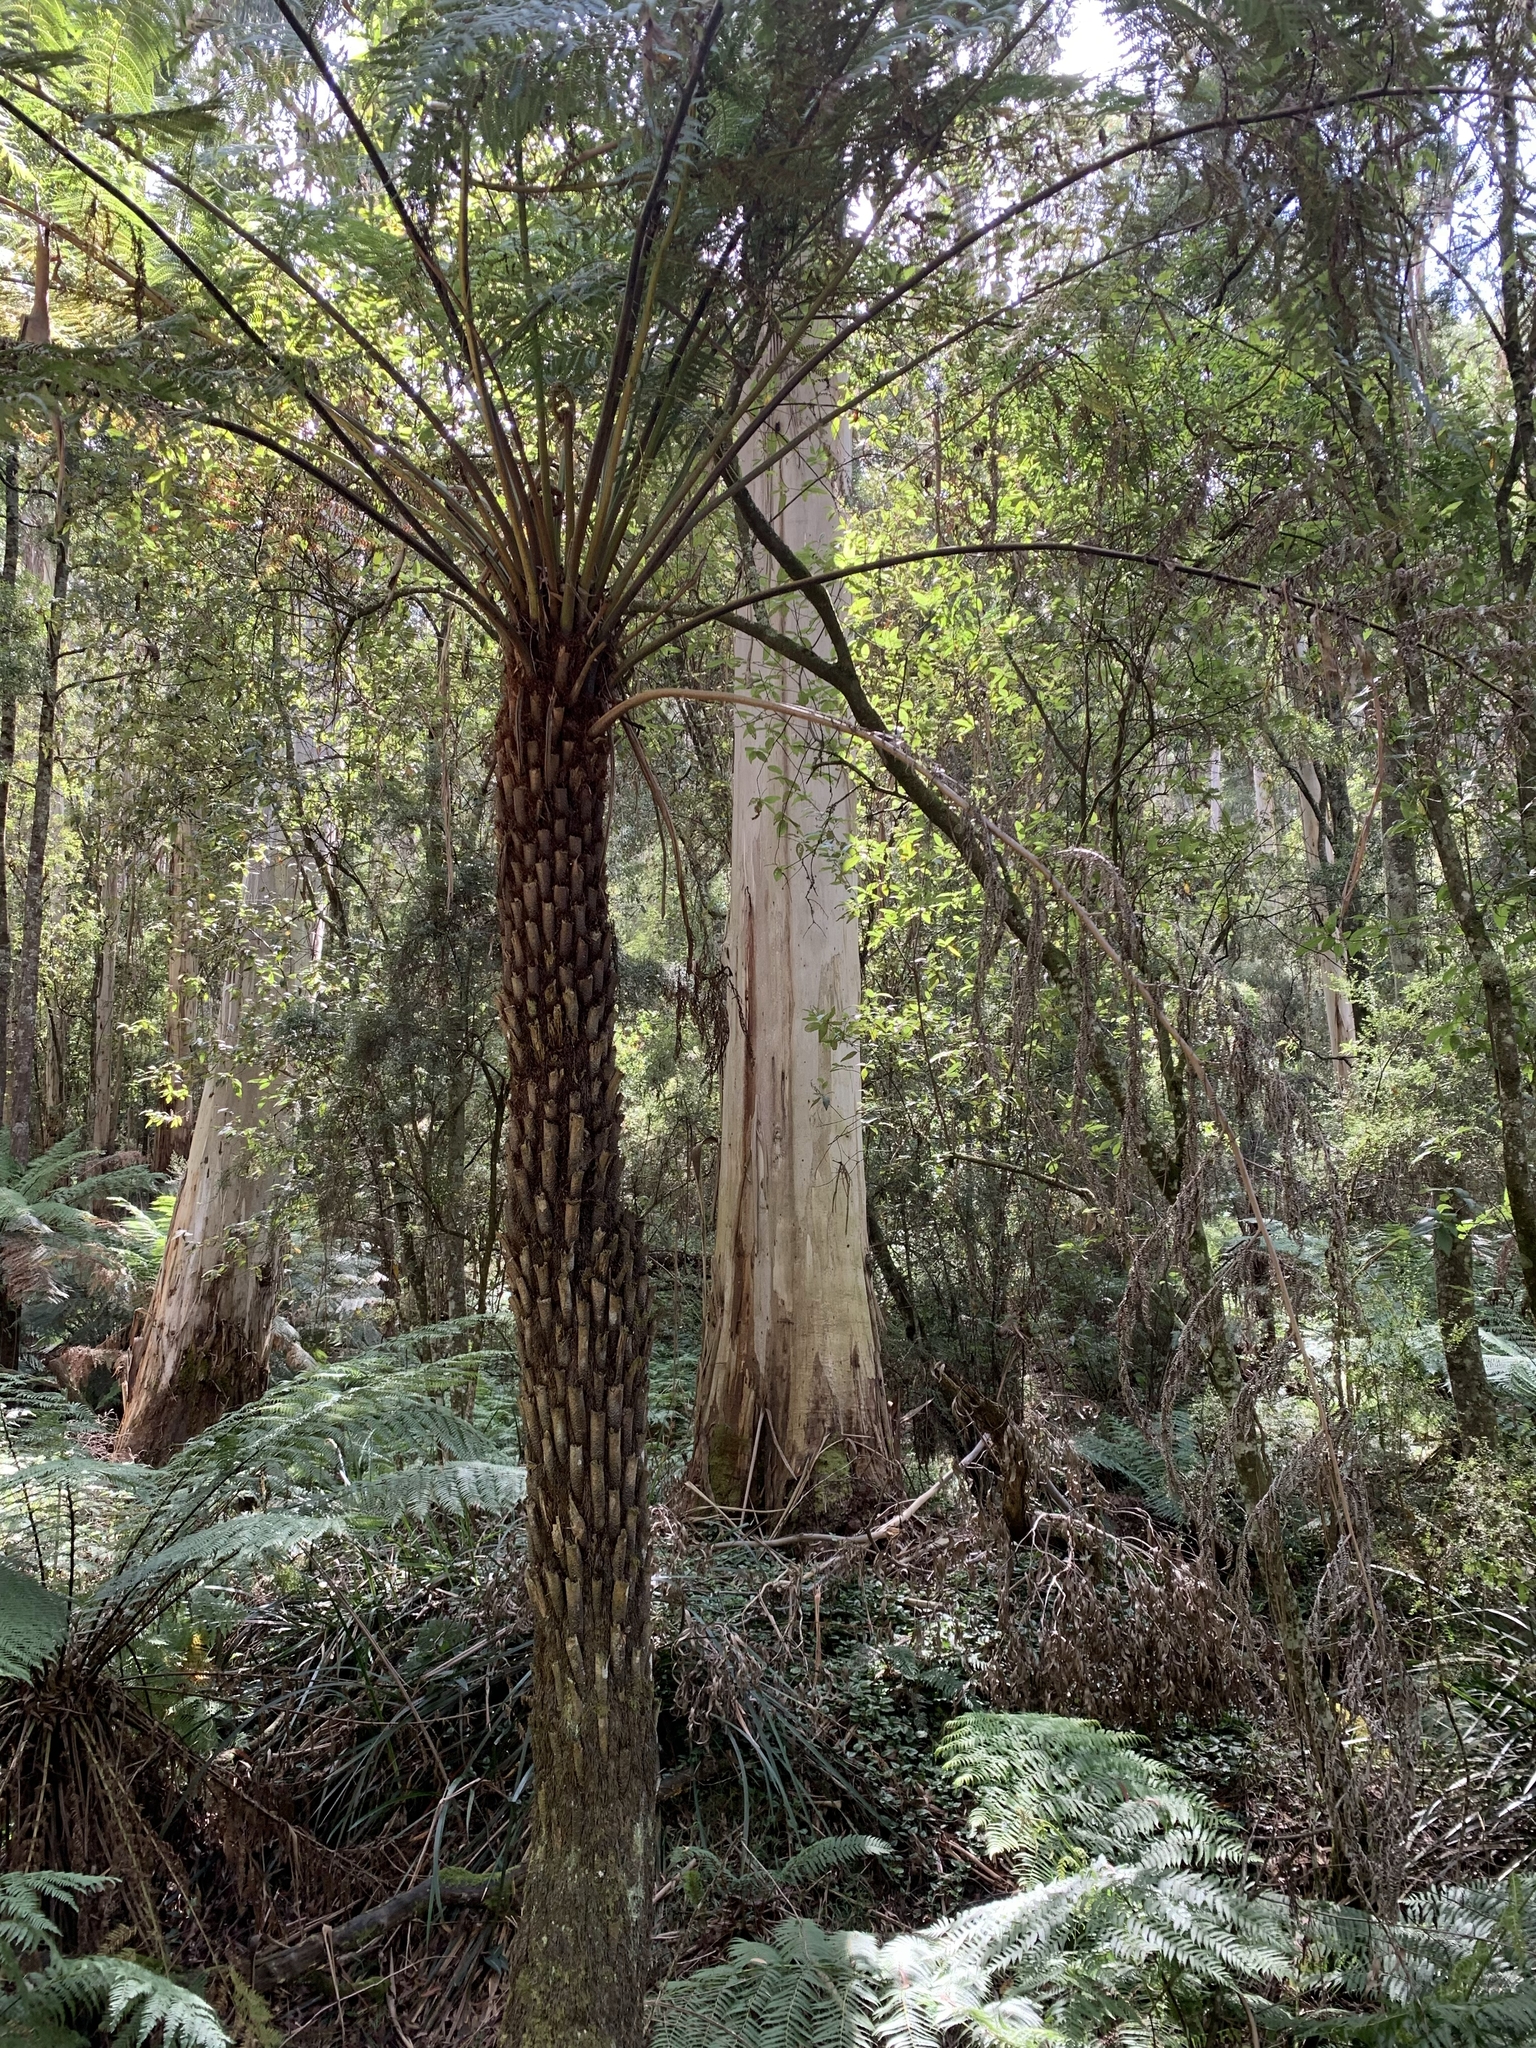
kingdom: Plantae
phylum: Tracheophyta
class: Polypodiopsida
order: Cyatheales
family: Cyatheaceae
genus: Alsophila
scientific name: Alsophila australis
